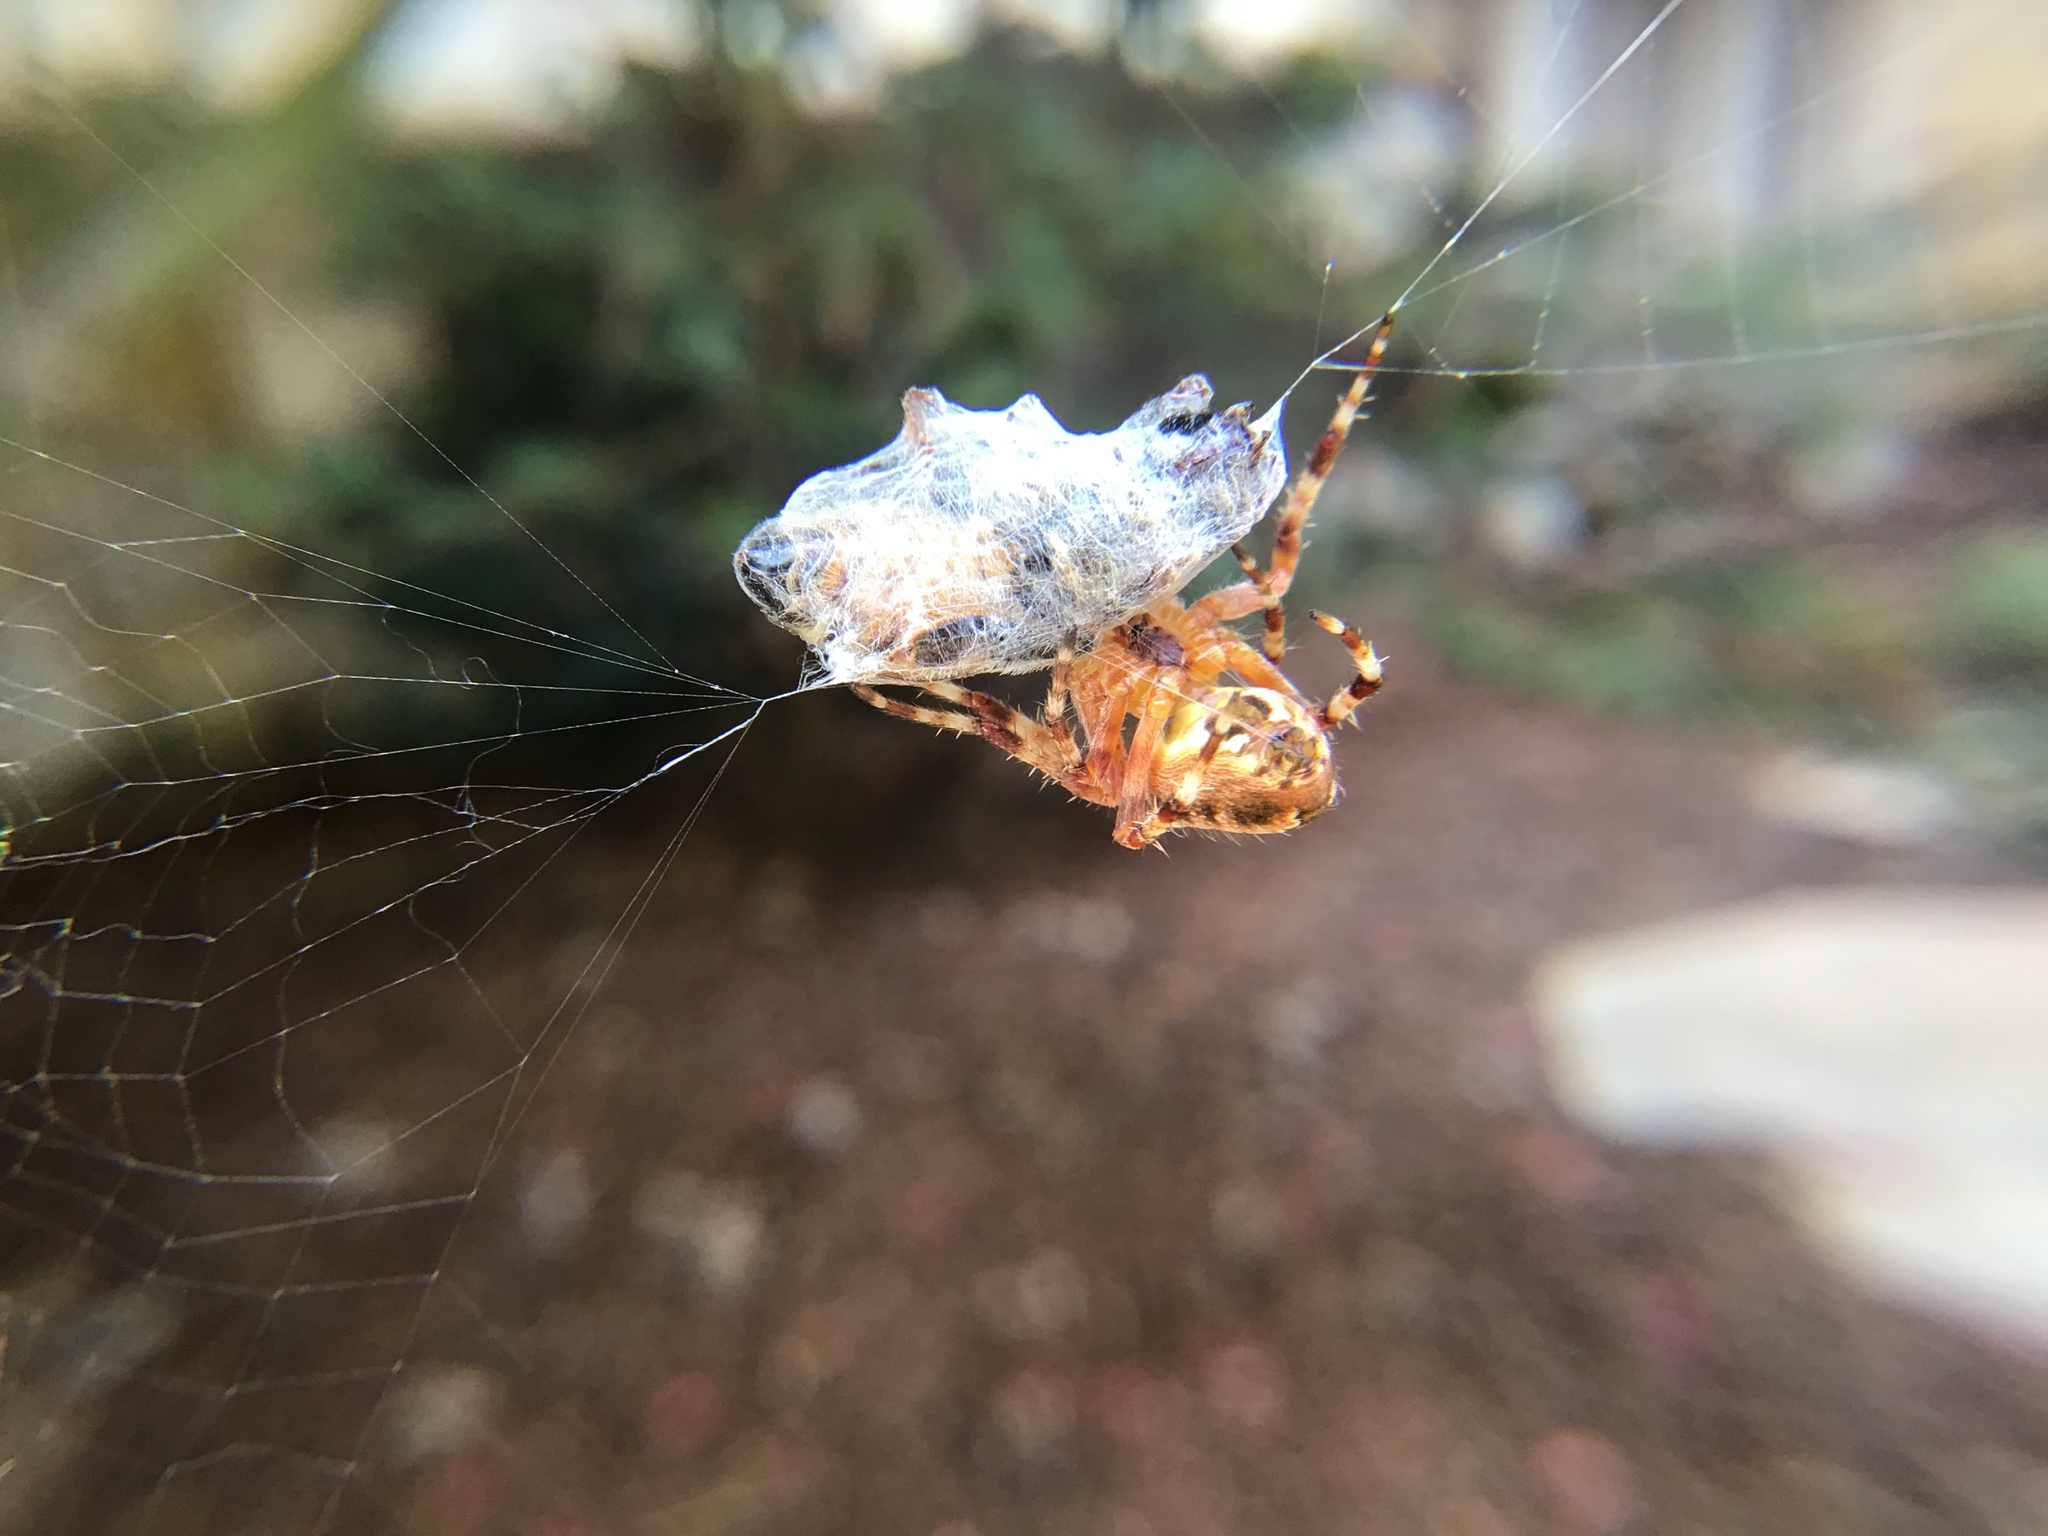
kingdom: Animalia
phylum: Arthropoda
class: Insecta
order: Hymenoptera
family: Apidae
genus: Apis
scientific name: Apis mellifera
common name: Honey bee
